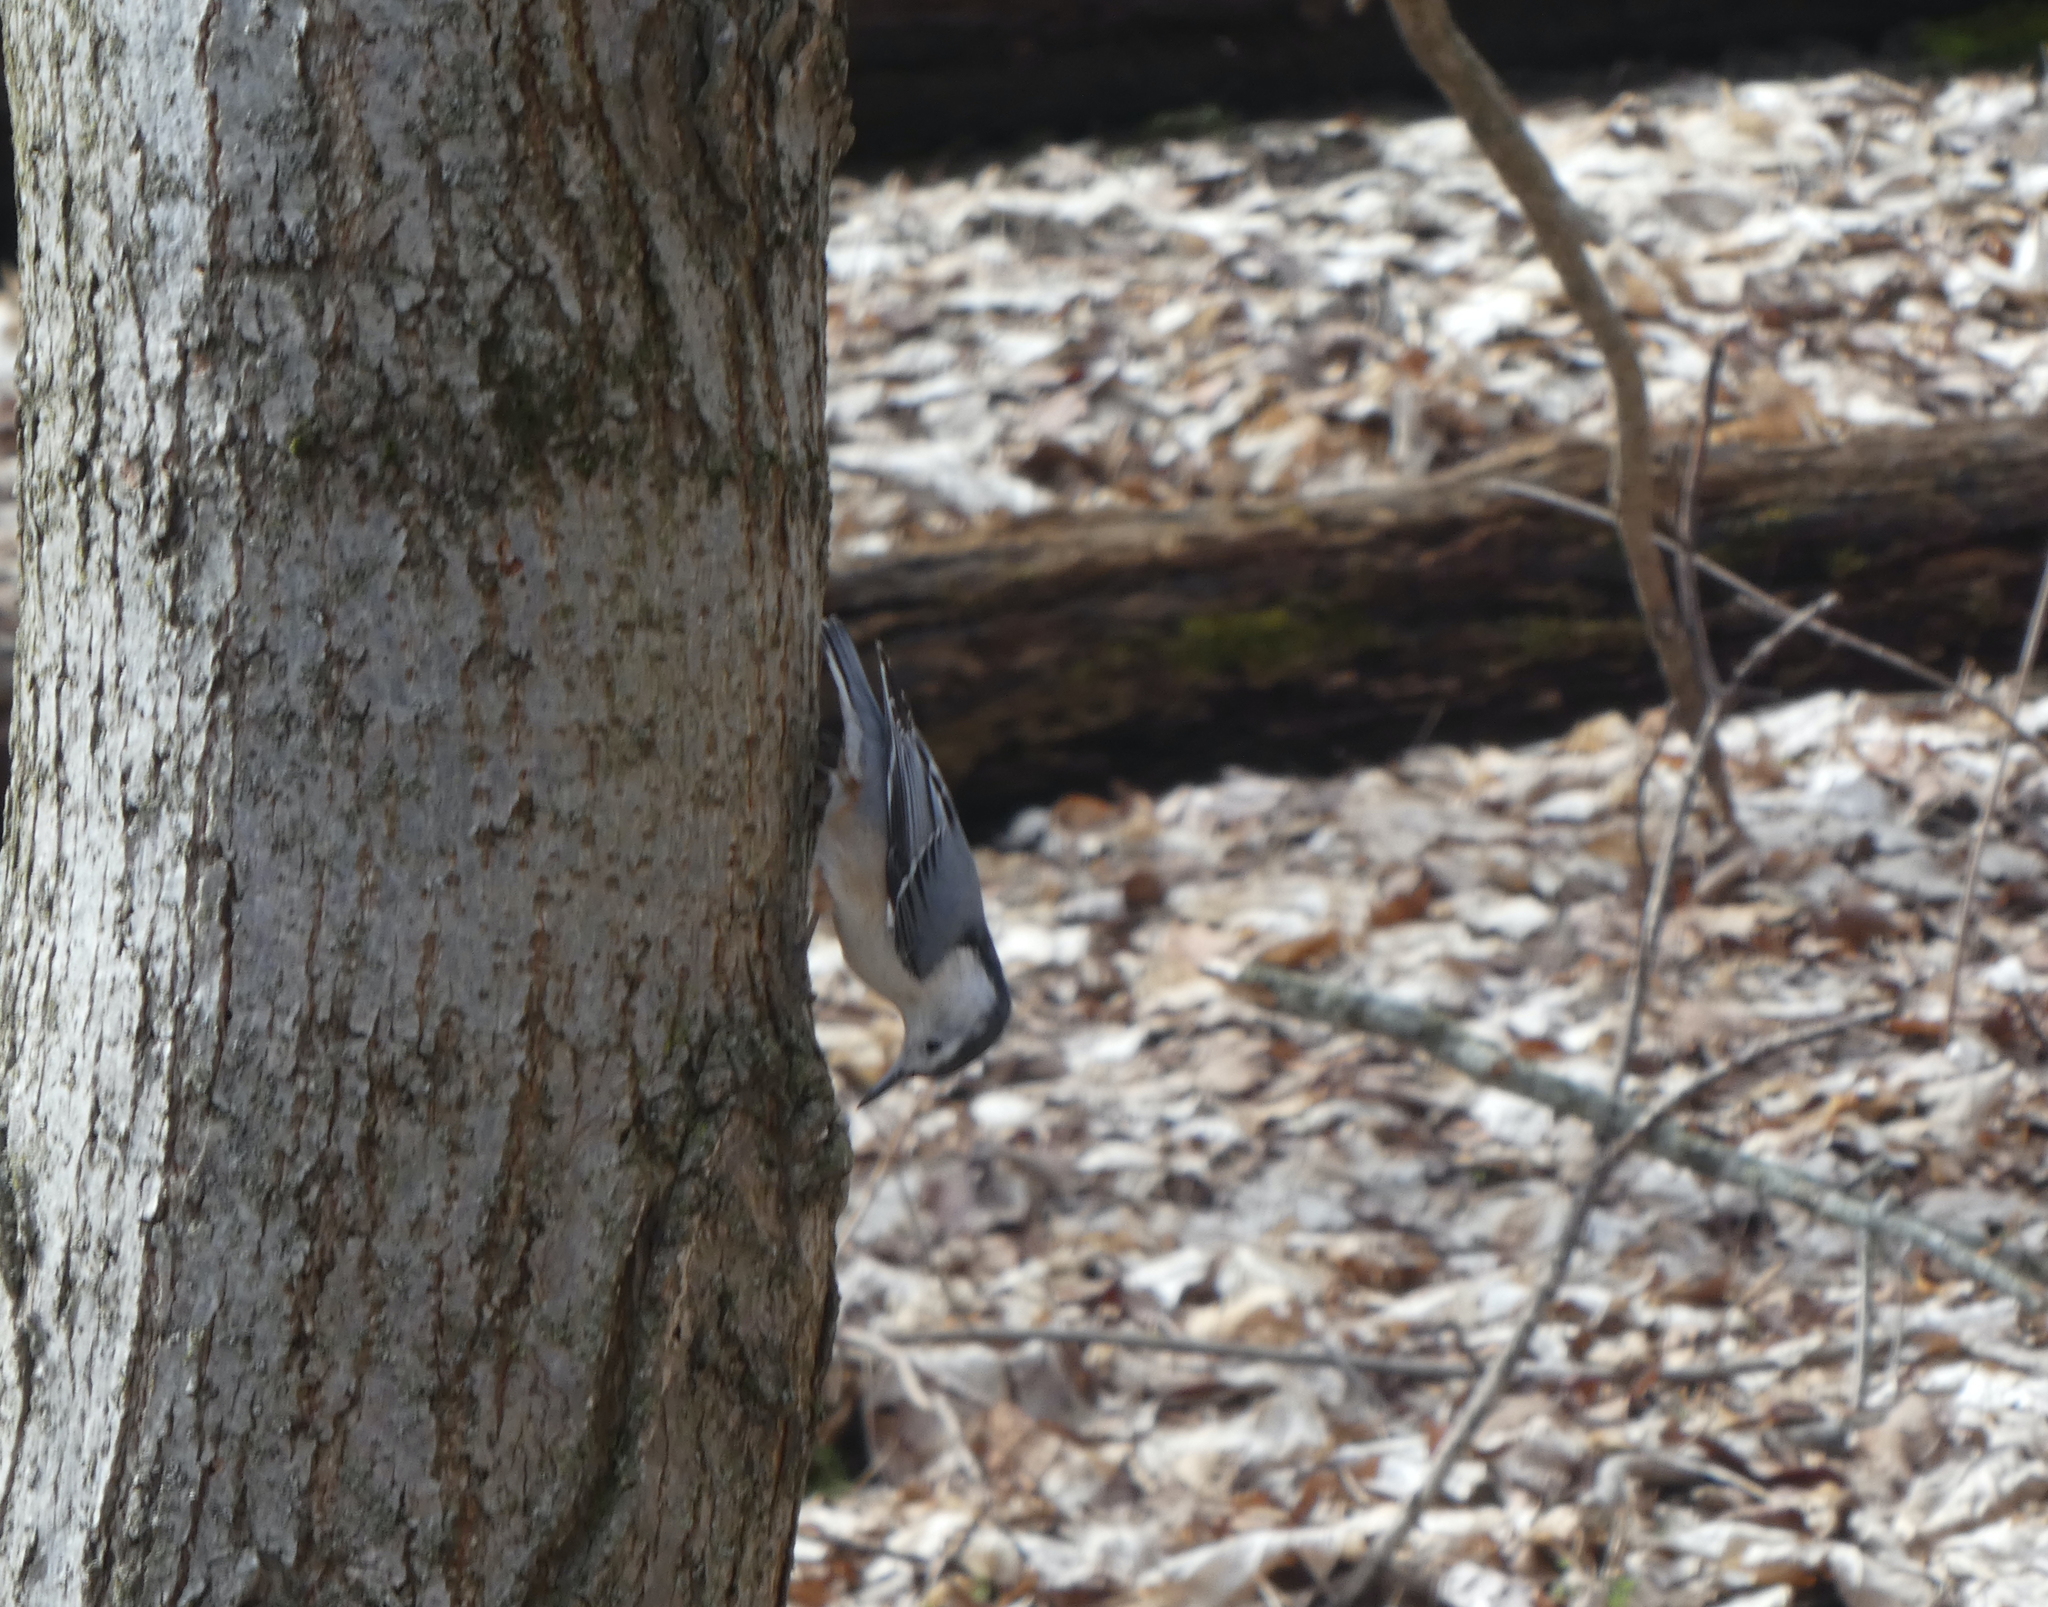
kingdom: Animalia
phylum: Chordata
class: Aves
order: Passeriformes
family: Sittidae
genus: Sitta
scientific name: Sitta carolinensis
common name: White-breasted nuthatch
